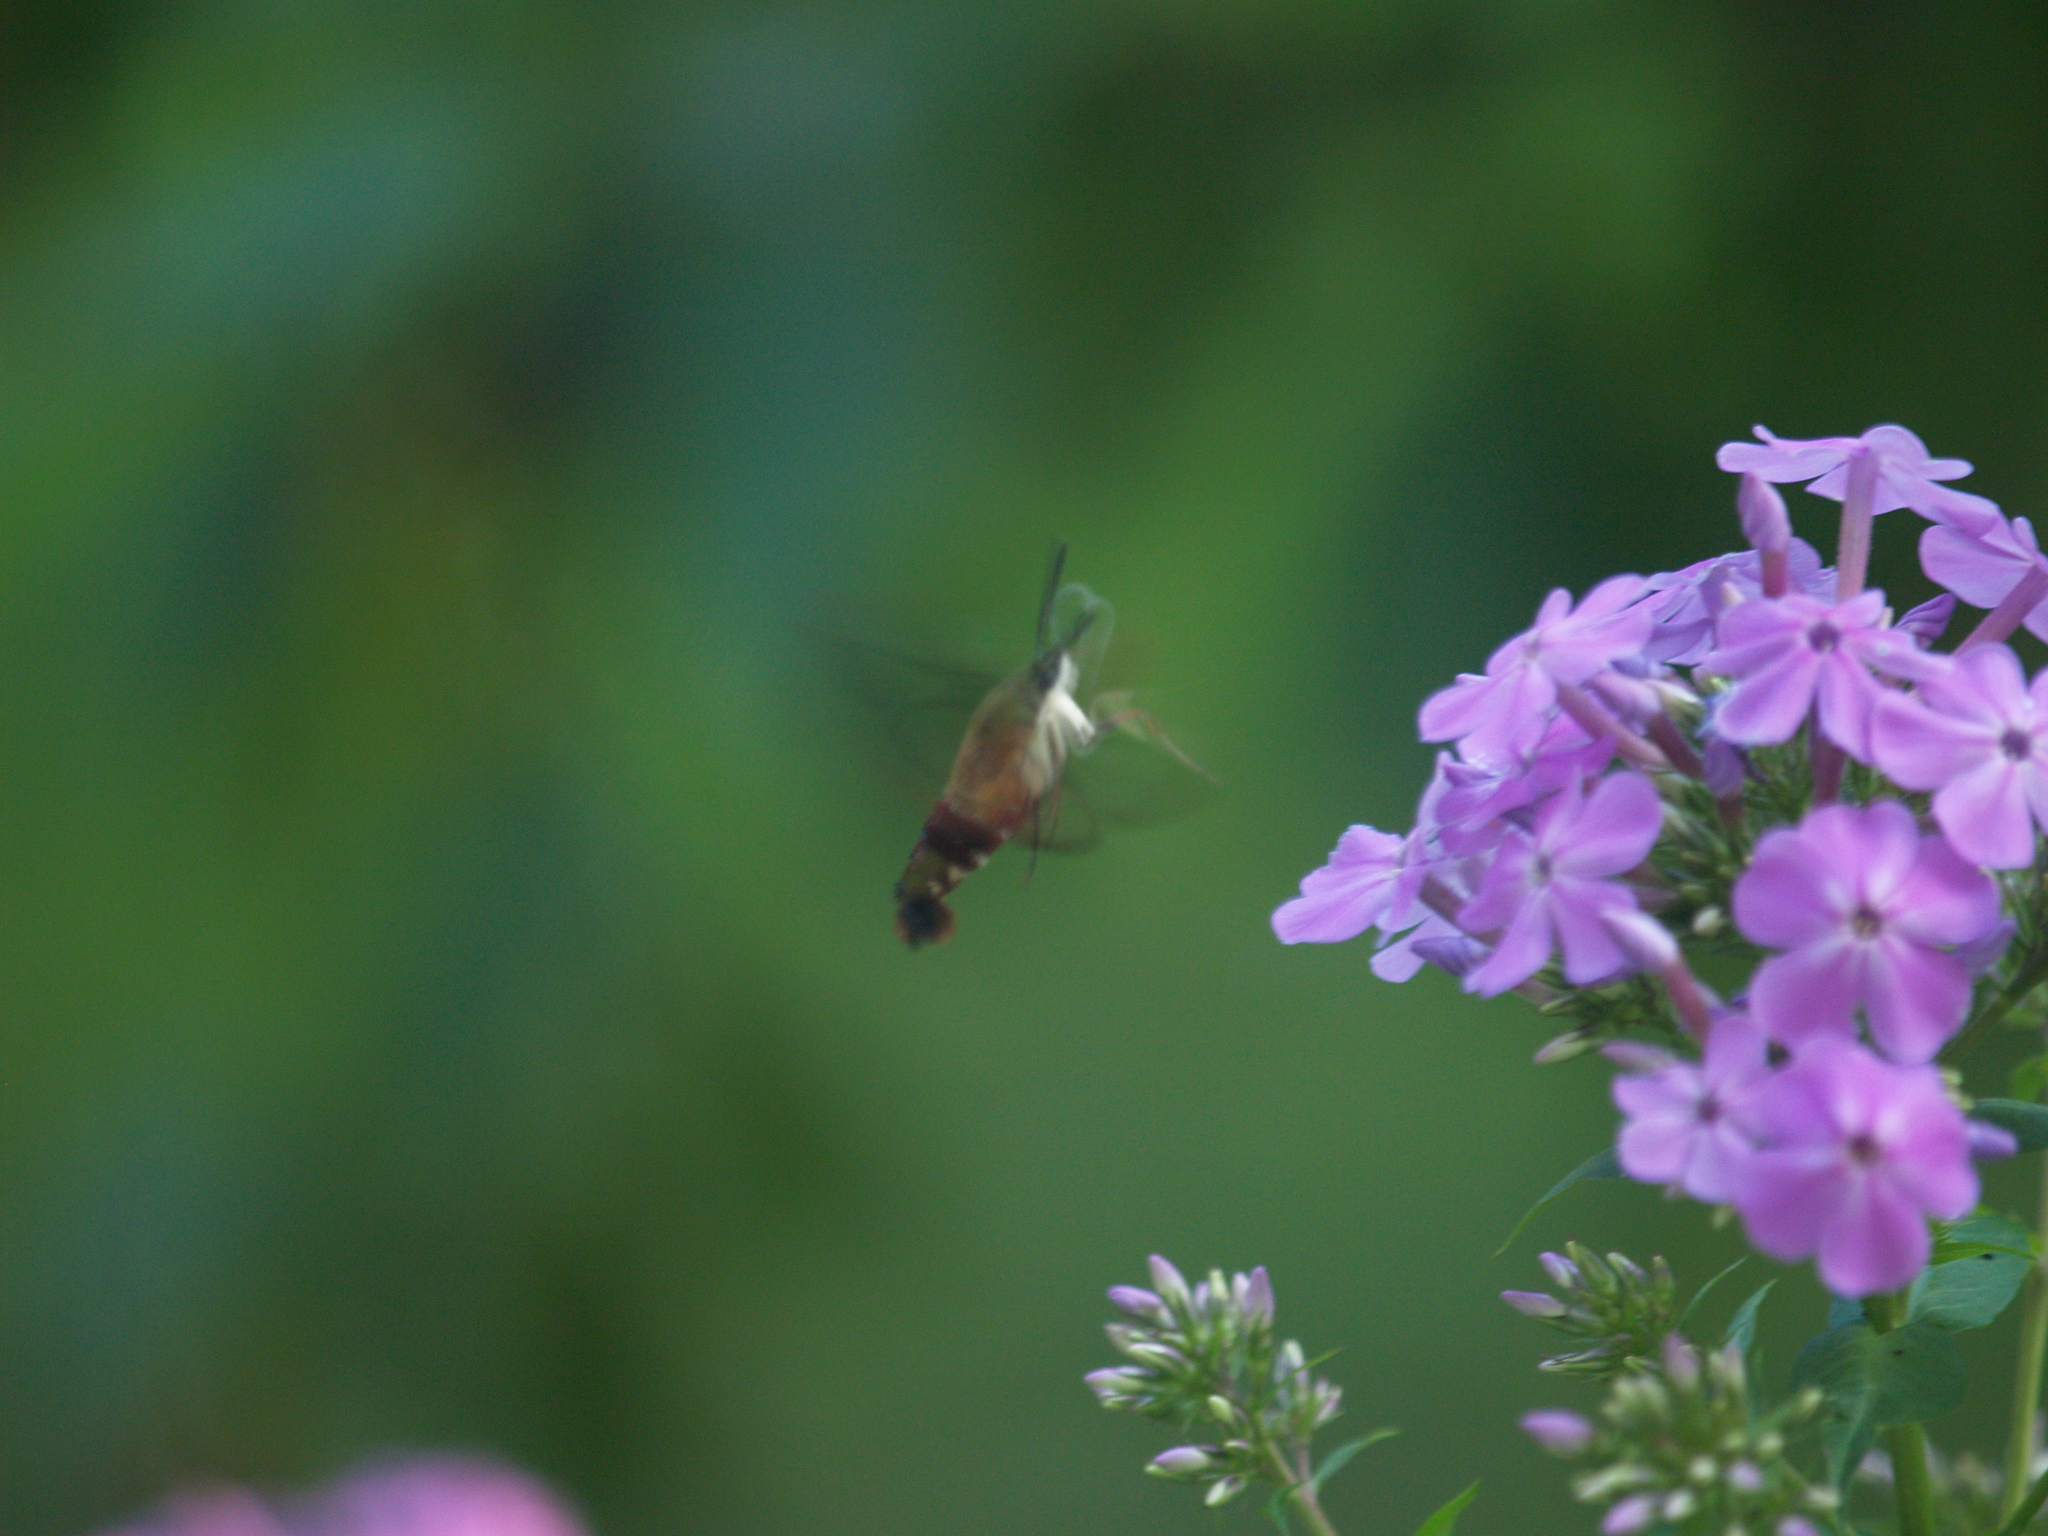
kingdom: Animalia
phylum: Arthropoda
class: Insecta
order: Lepidoptera
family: Sphingidae
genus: Hemaris
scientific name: Hemaris thysbe
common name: Common clear-wing
